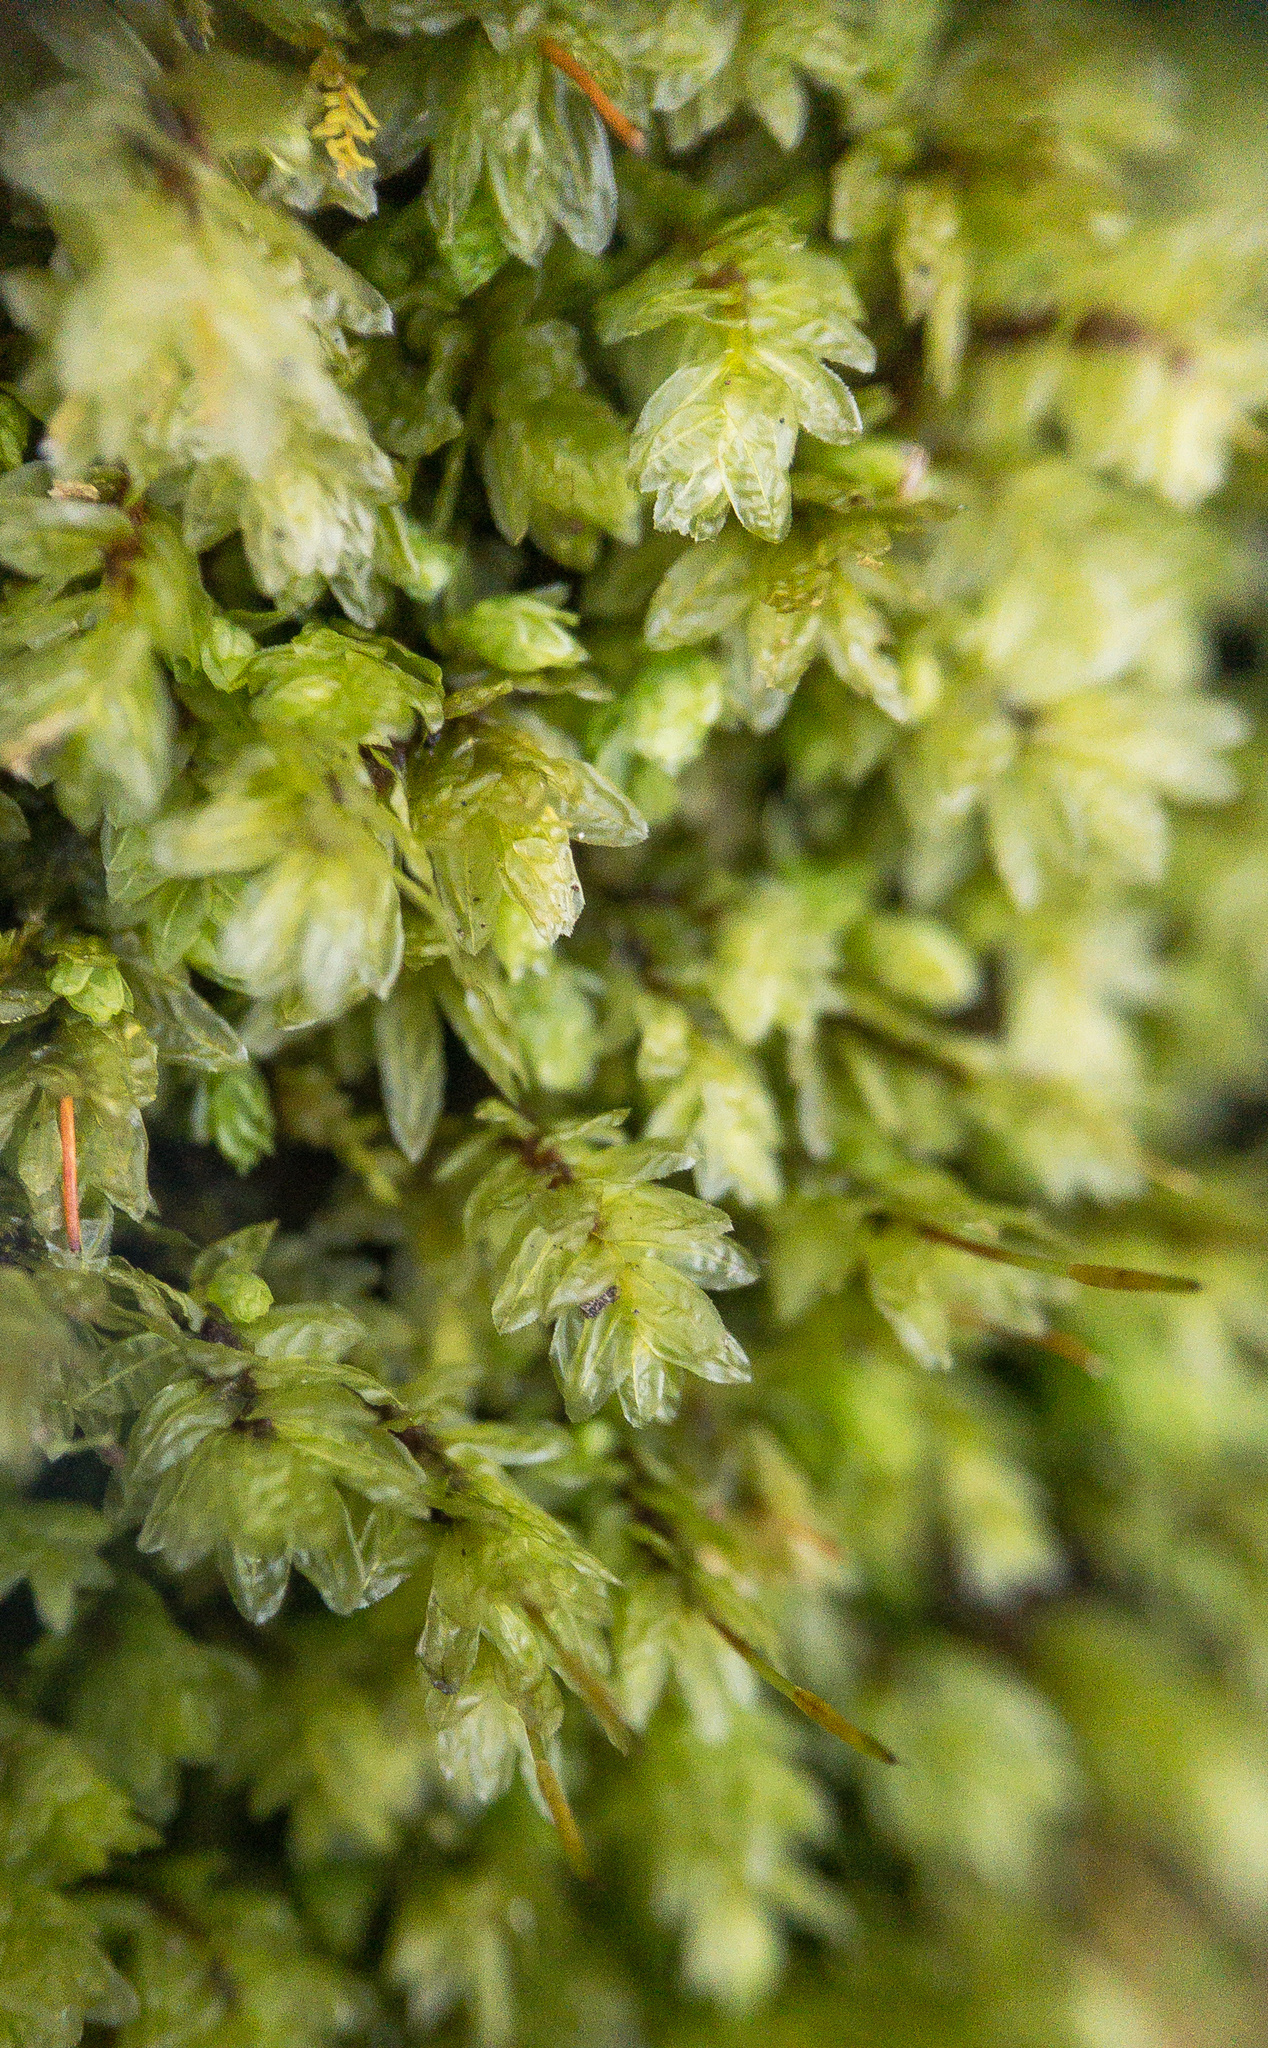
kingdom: Plantae
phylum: Bryophyta
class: Bryopsida
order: Aulacomniales
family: Aulacomniaceae
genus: Aulacomnium
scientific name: Aulacomnium heterostichum
